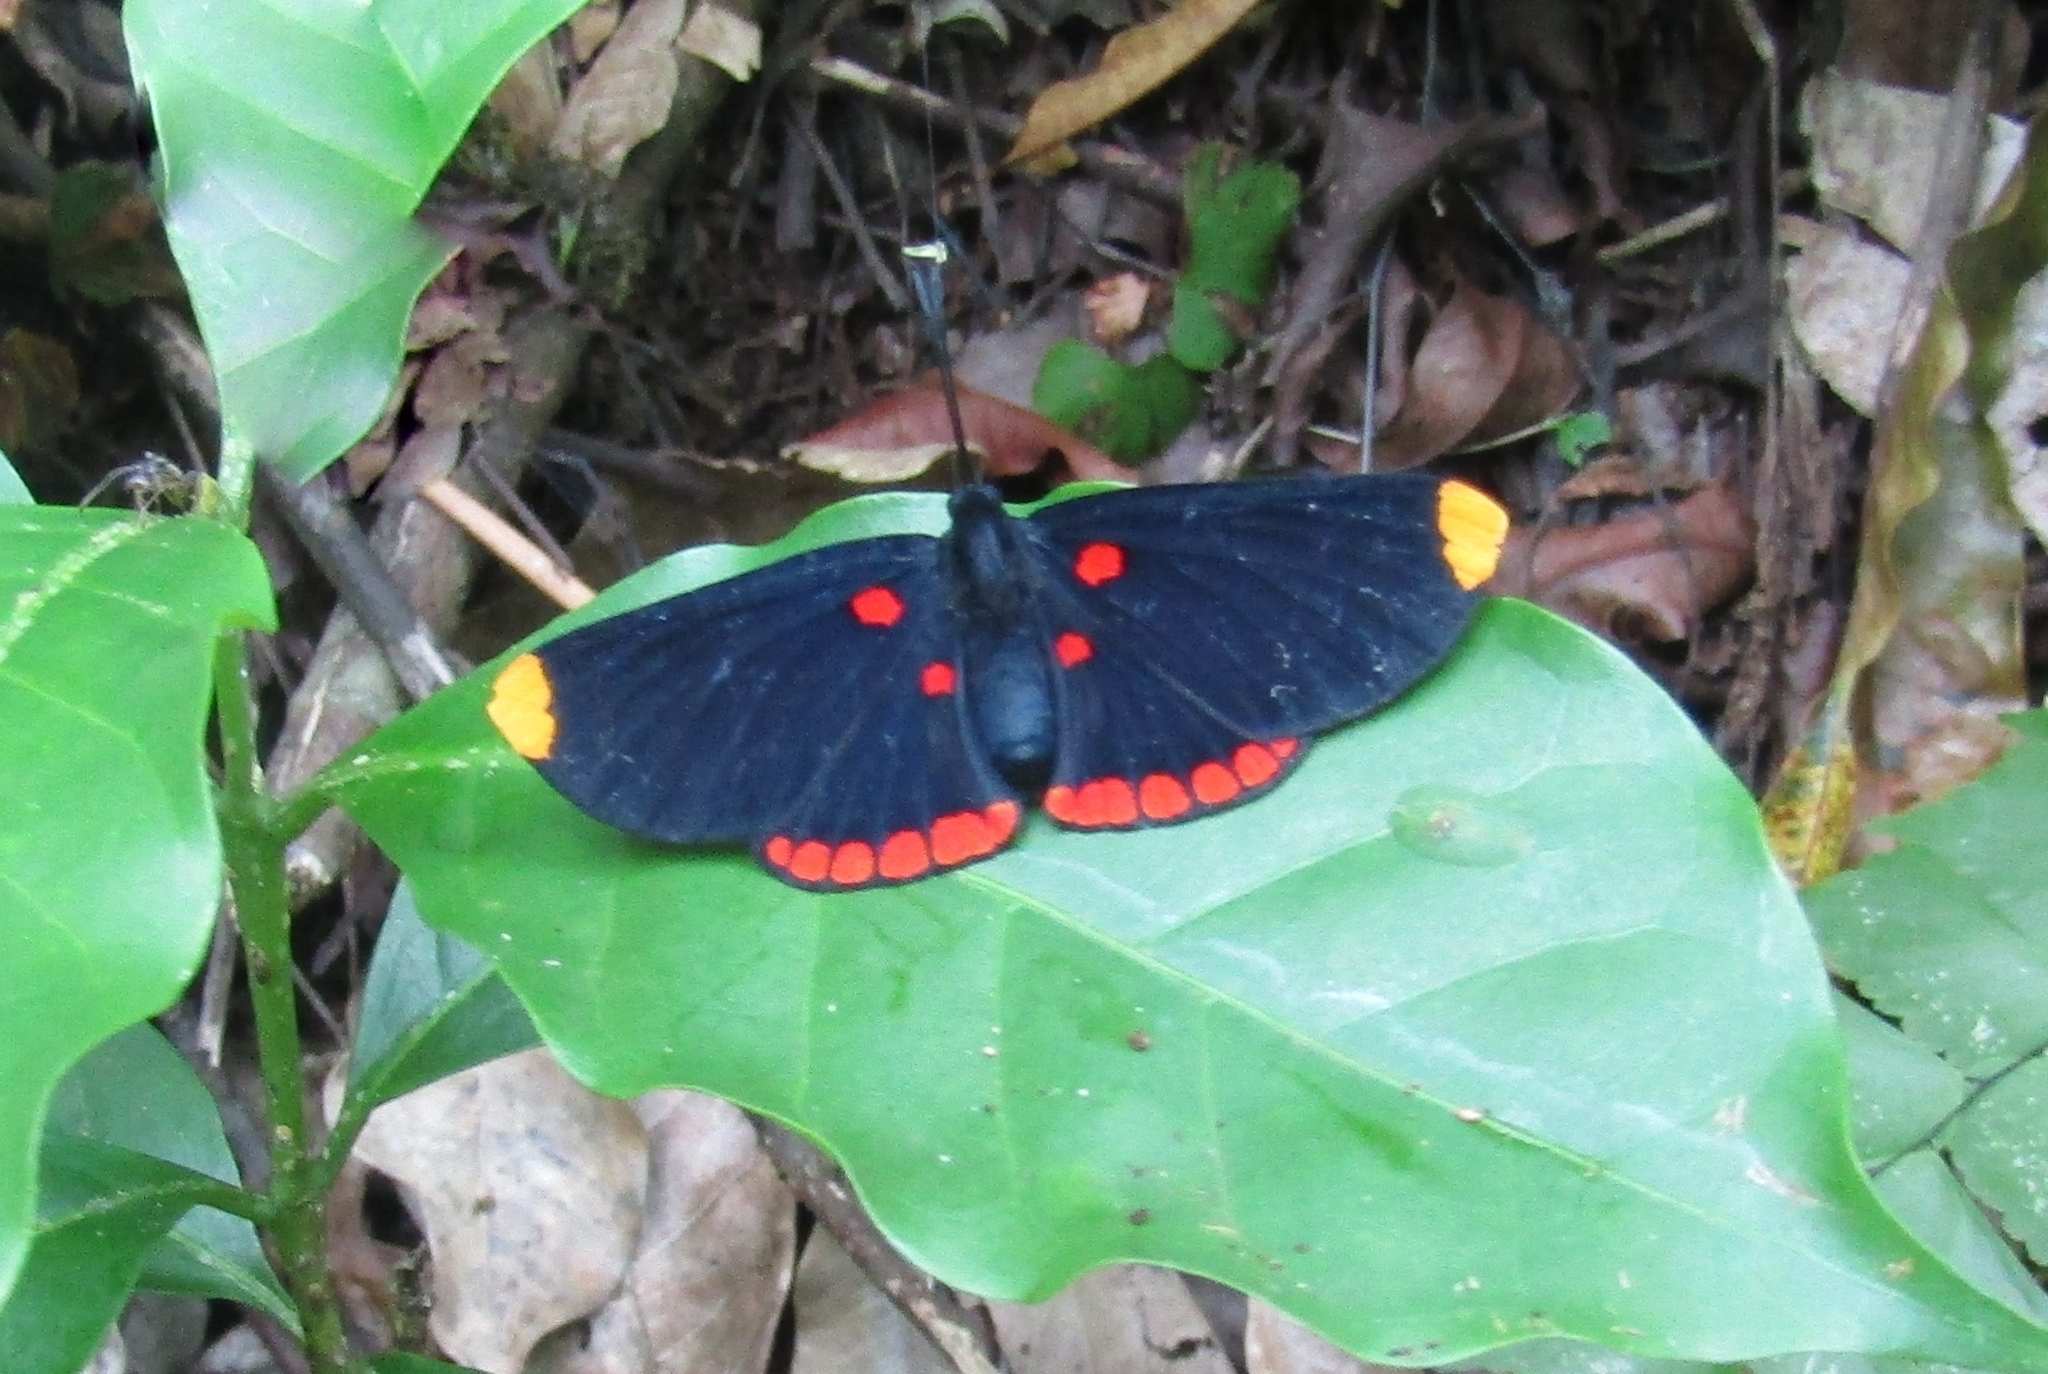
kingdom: Animalia
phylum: Arthropoda
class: Insecta
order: Lepidoptera
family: Lycaenidae
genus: Melanis
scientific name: Melanis pixe
